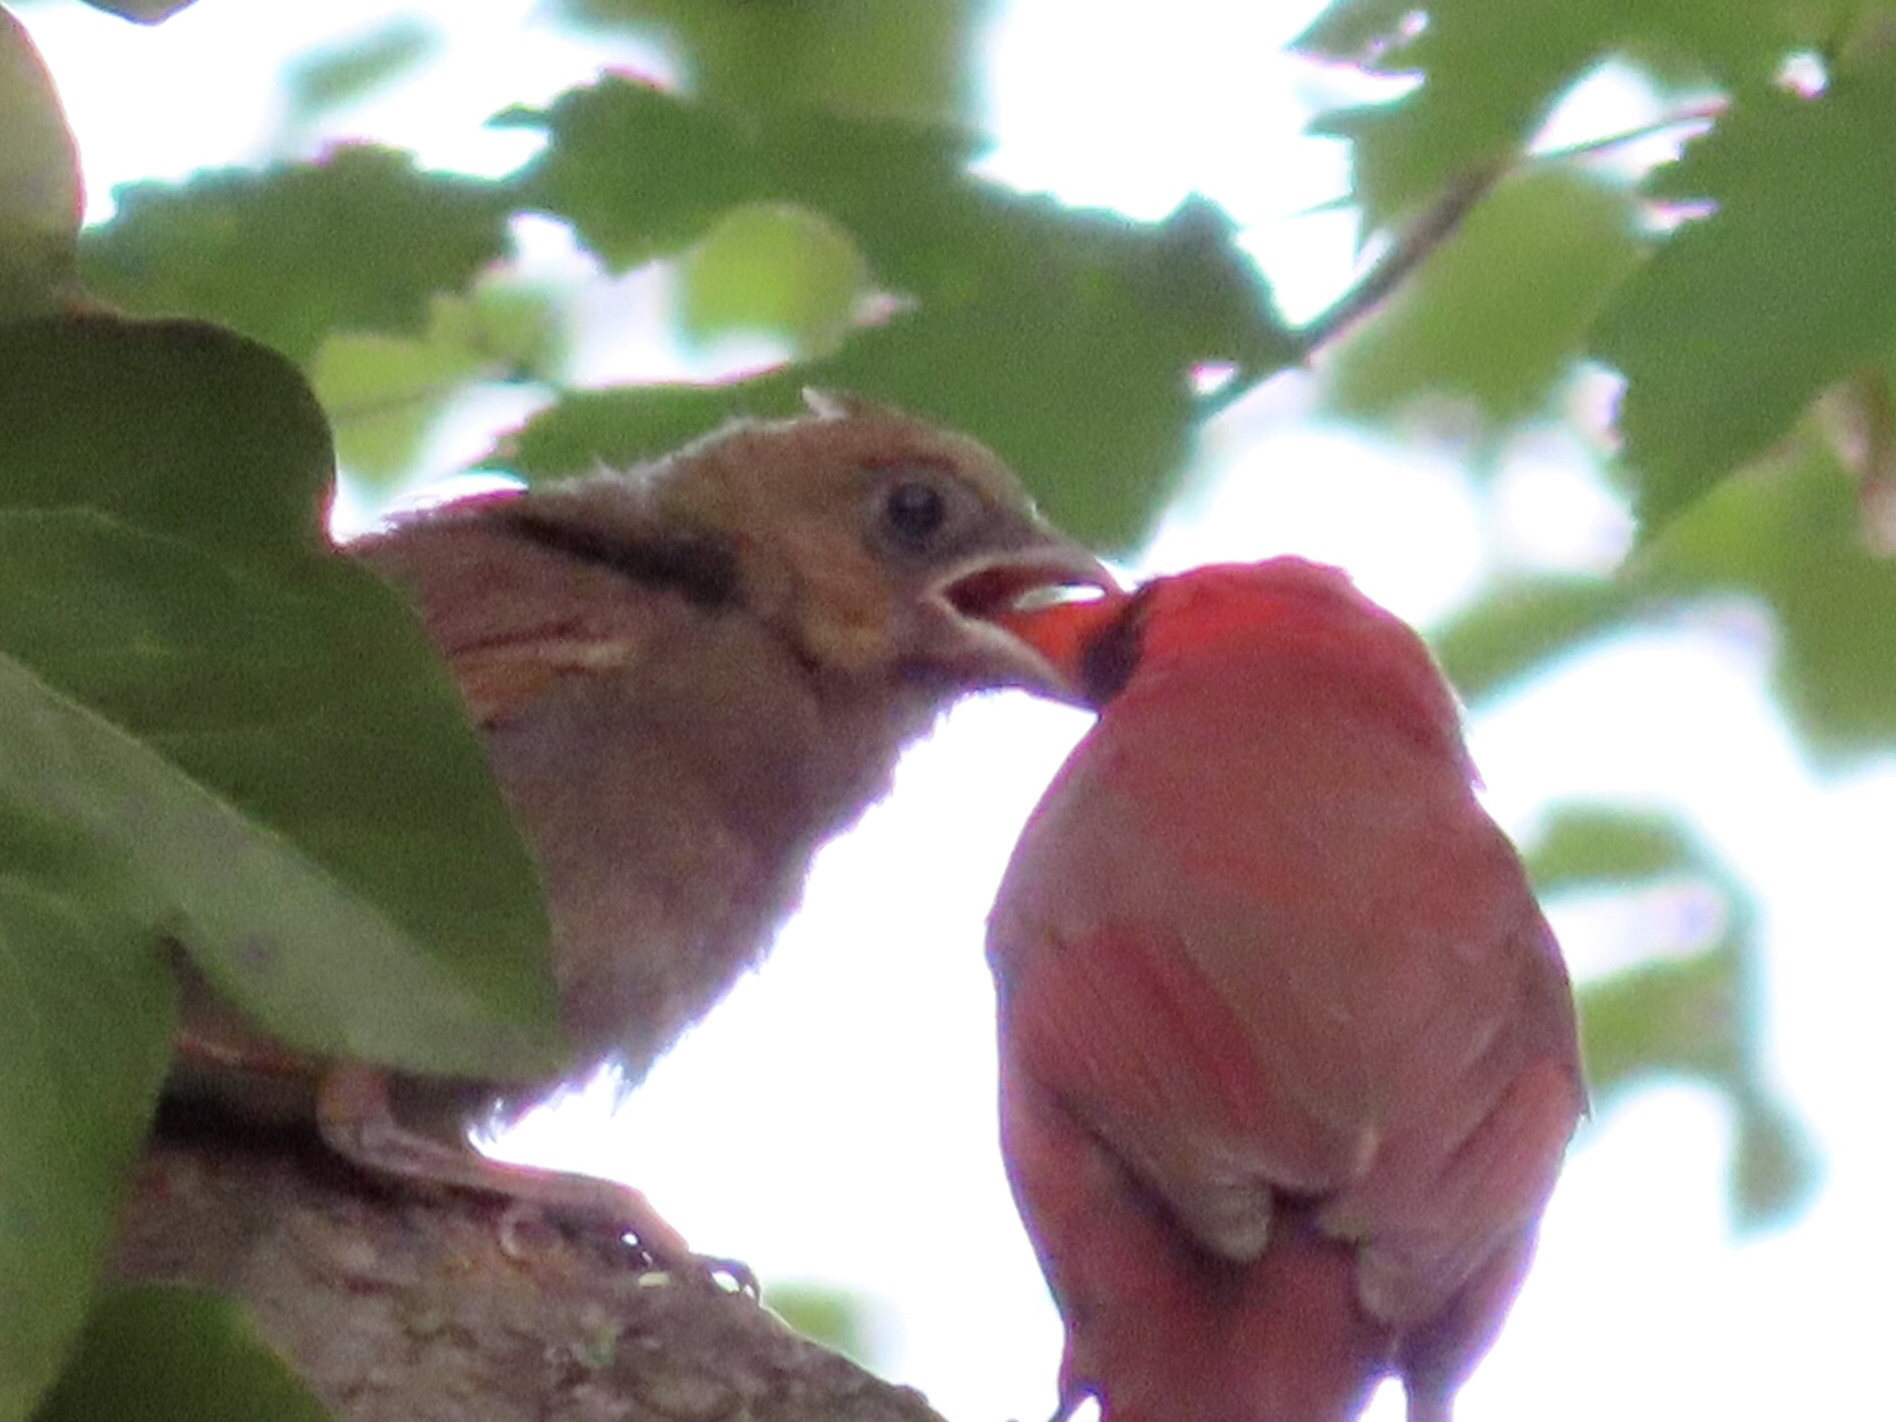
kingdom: Animalia
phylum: Chordata
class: Aves
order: Passeriformes
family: Cardinalidae
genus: Cardinalis
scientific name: Cardinalis cardinalis
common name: Northern cardinal
